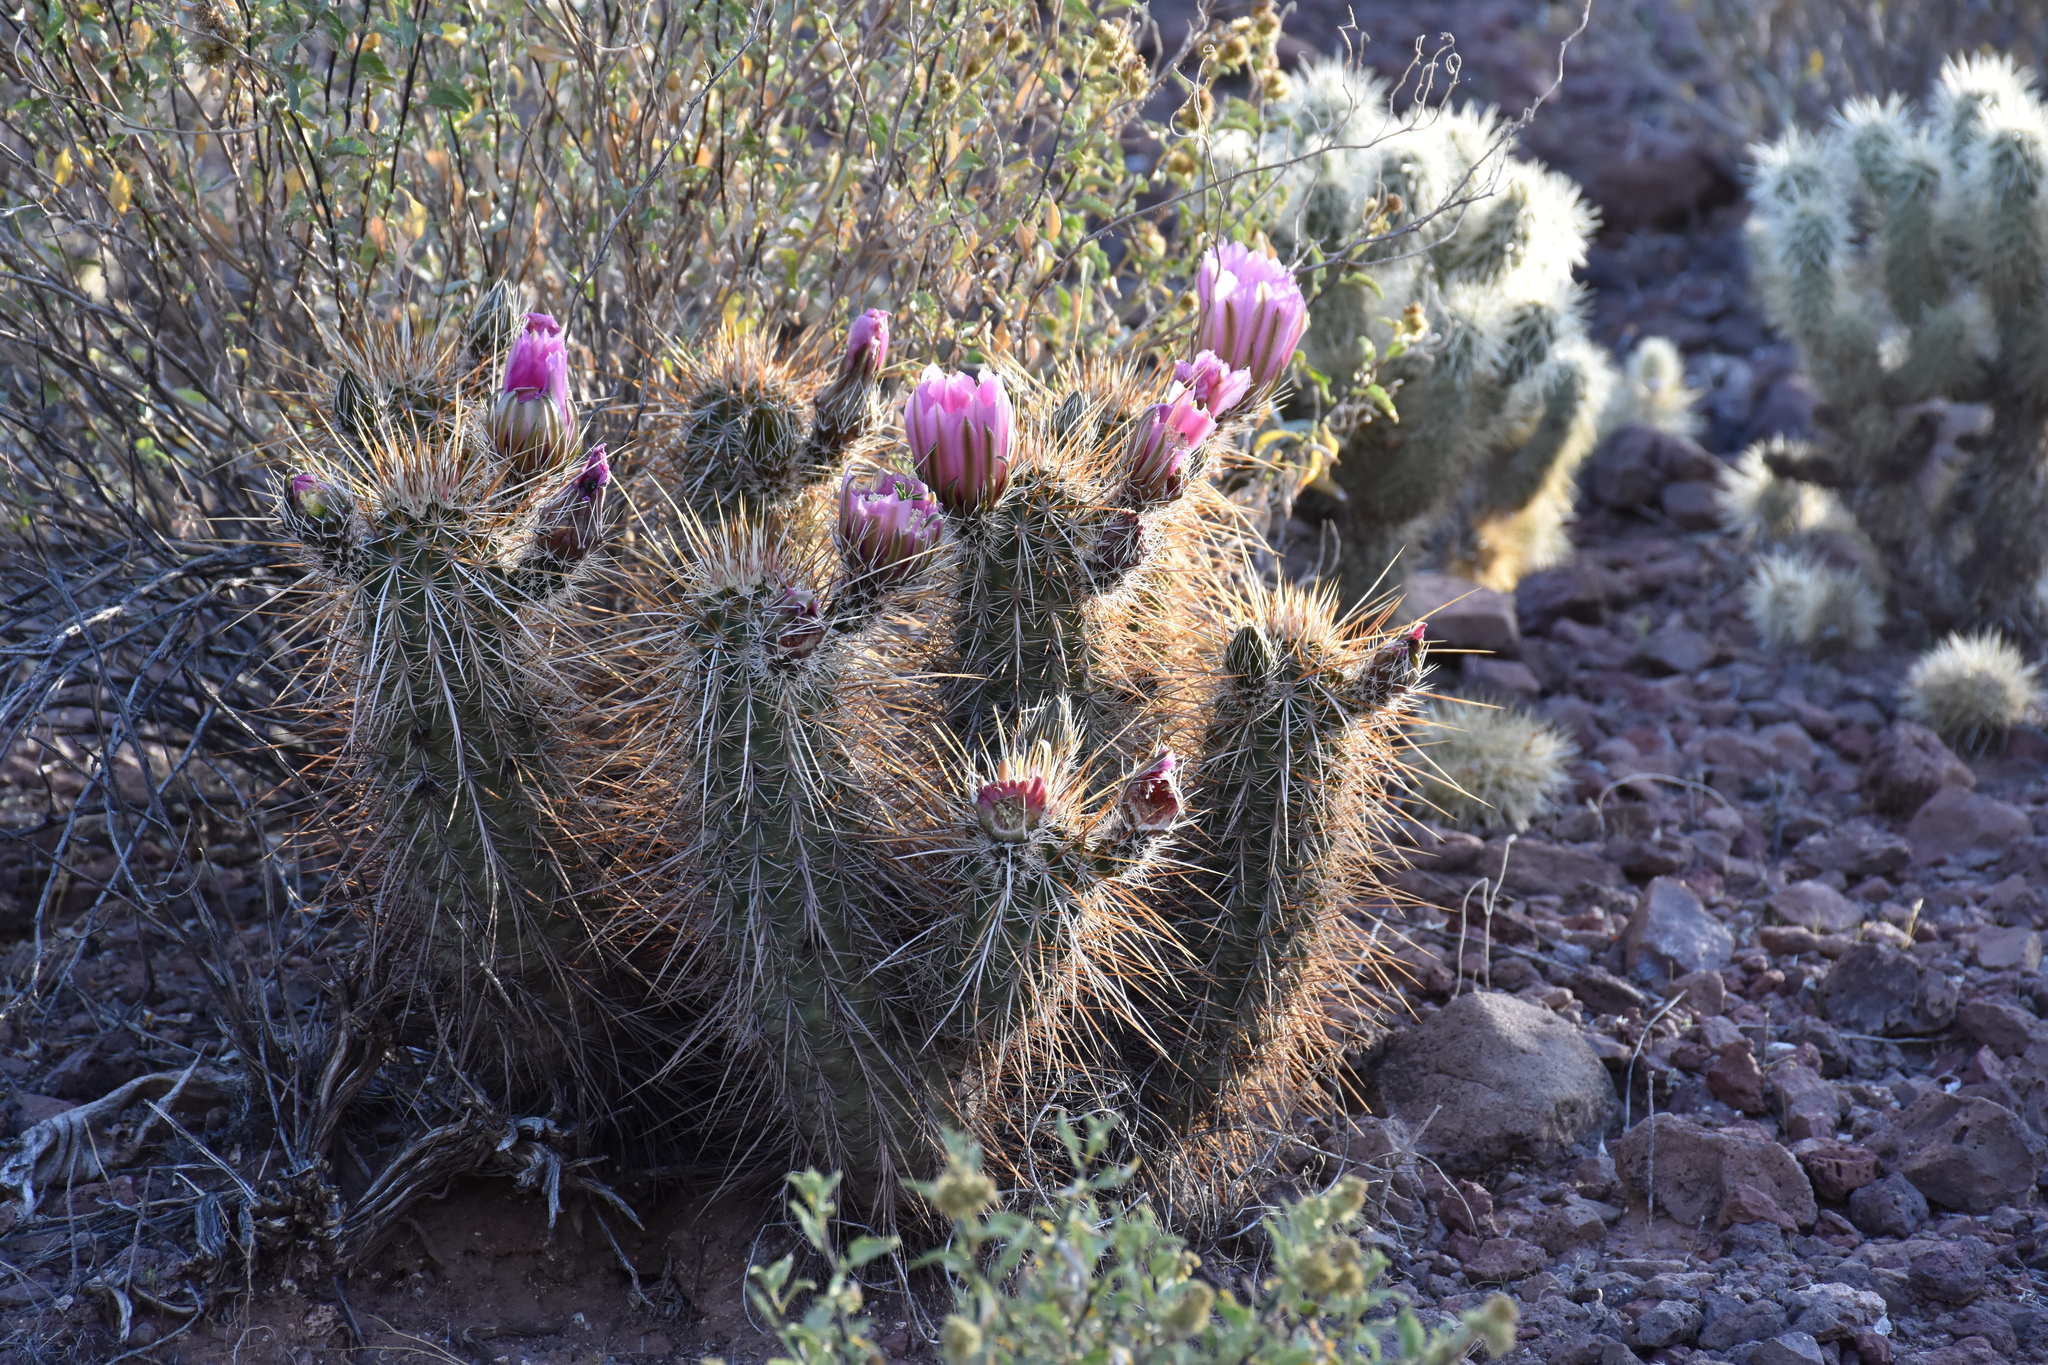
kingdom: Plantae
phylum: Tracheophyta
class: Magnoliopsida
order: Caryophyllales
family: Cactaceae
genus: Echinocereus
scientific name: Echinocereus engelmannii
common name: Engelmann's hedgehog cactus
